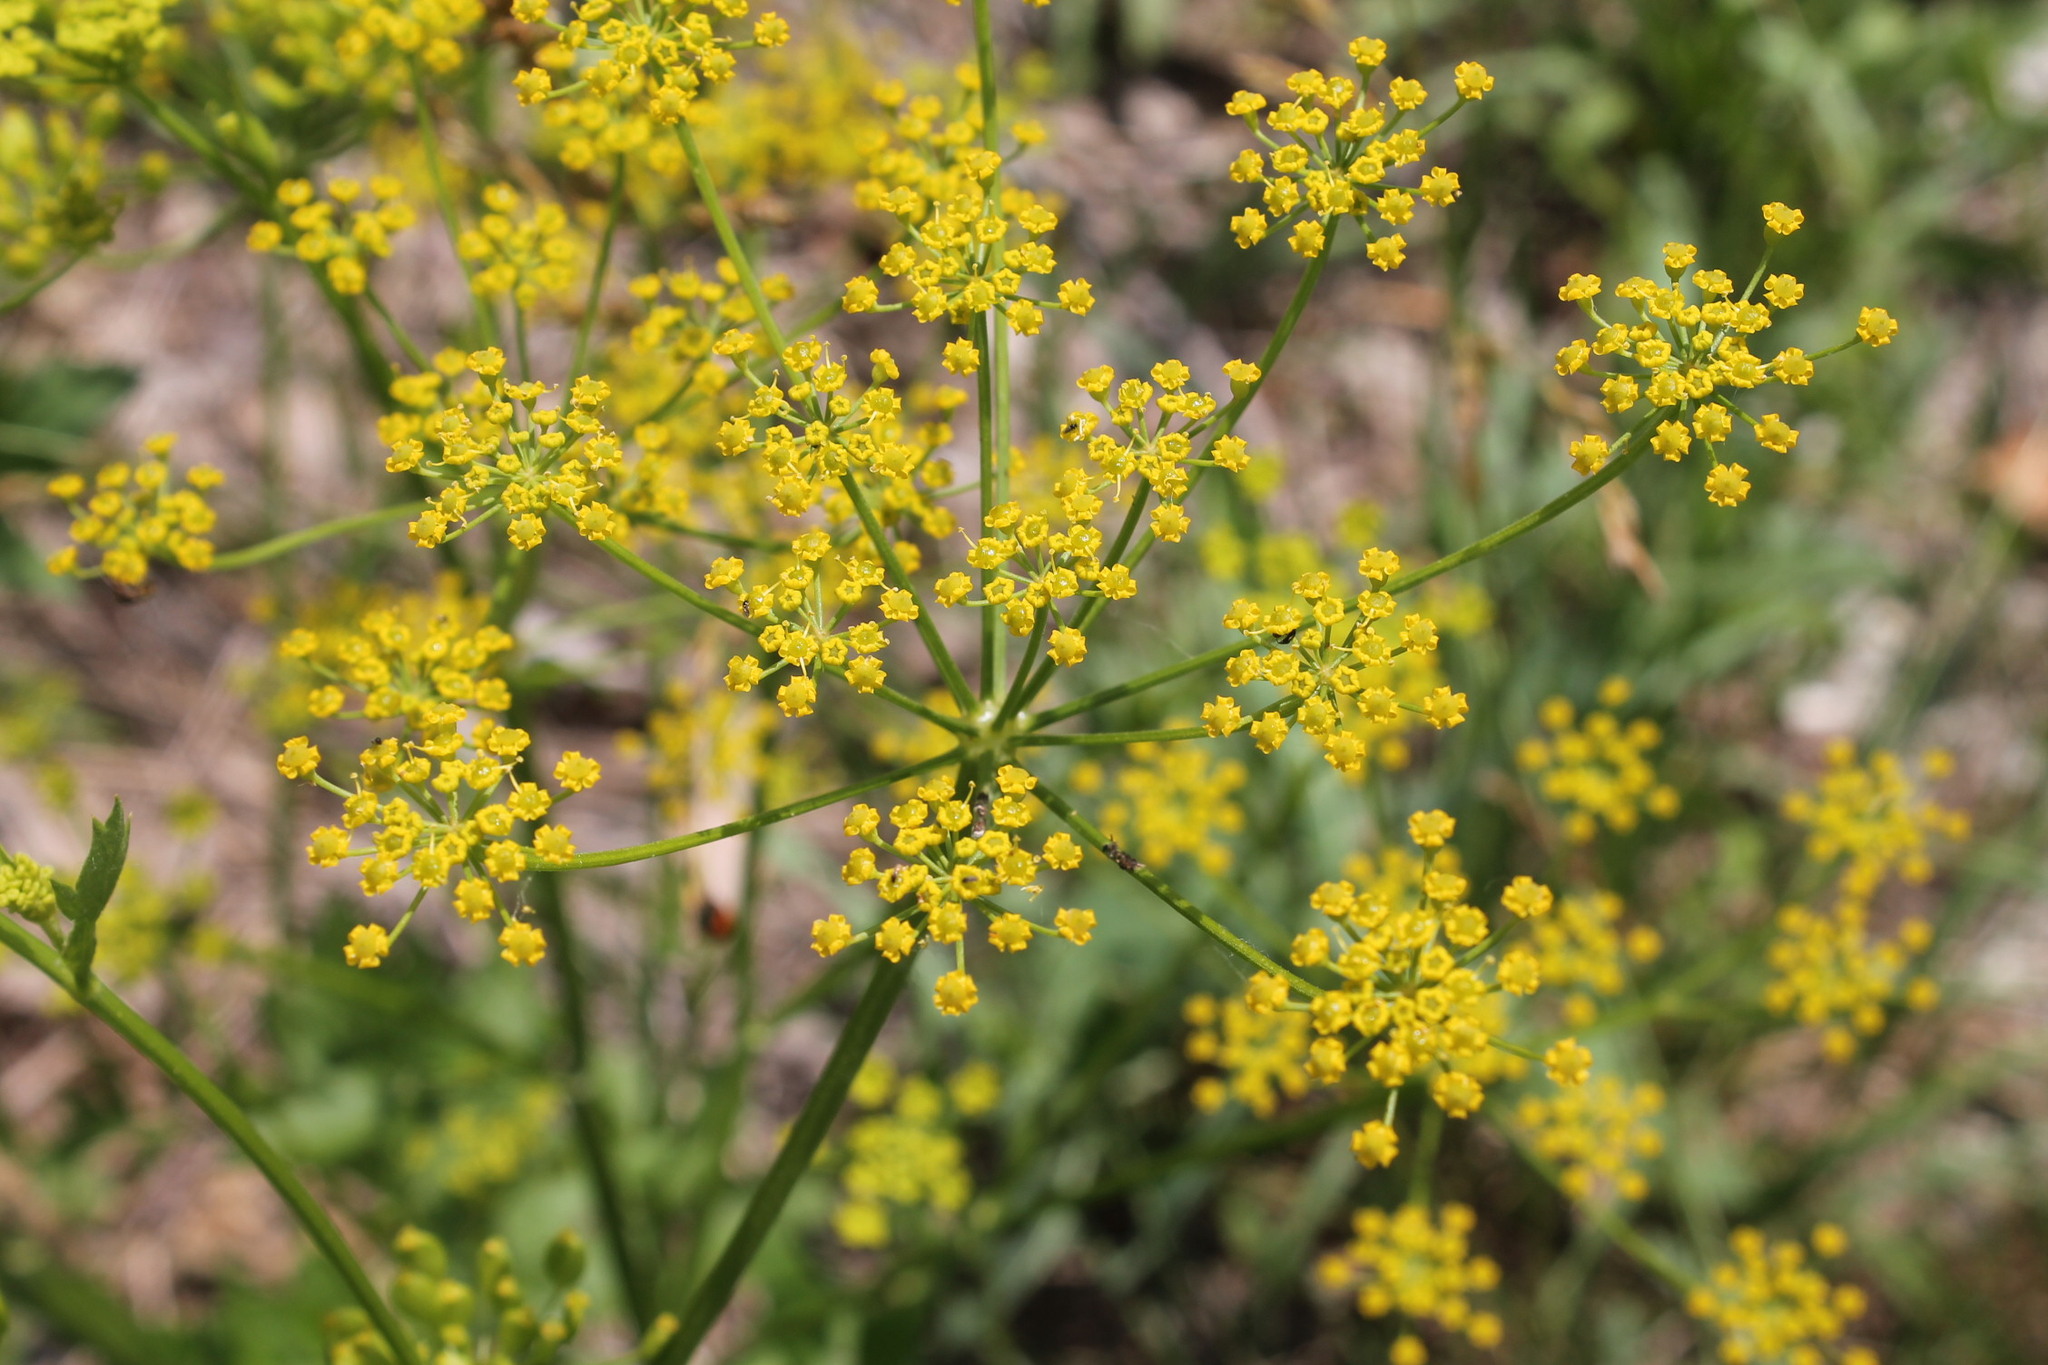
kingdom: Plantae
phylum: Tracheophyta
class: Magnoliopsida
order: Apiales
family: Apiaceae
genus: Pastinaca
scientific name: Pastinaca sativa
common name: Wild parsnip
